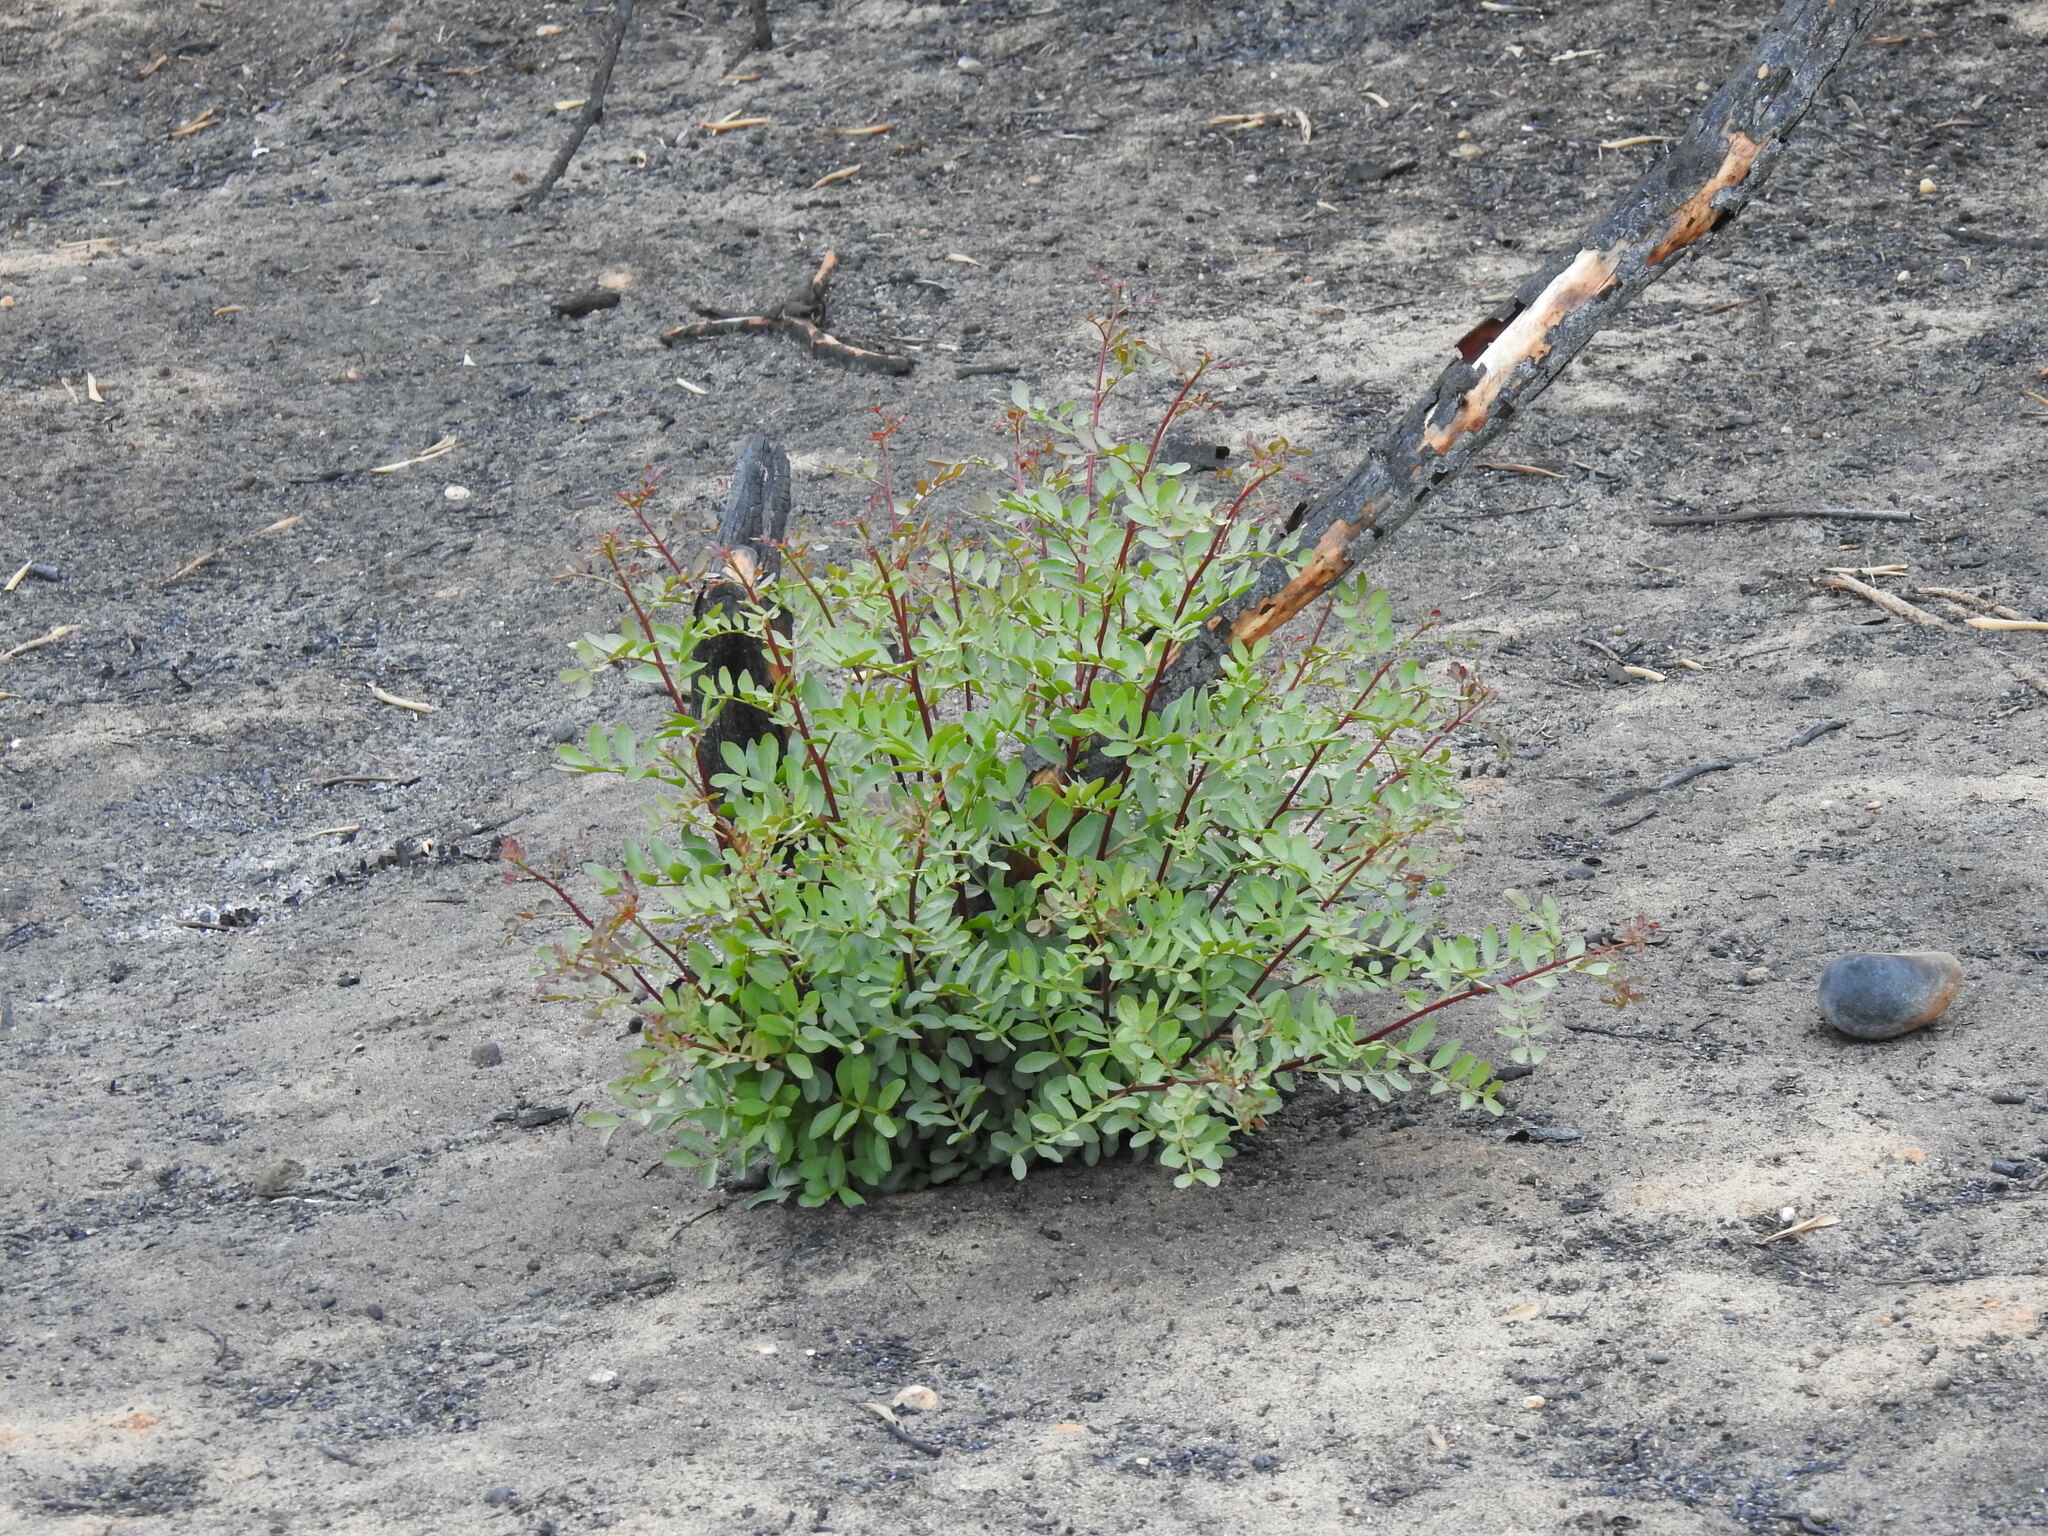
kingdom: Plantae
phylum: Tracheophyta
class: Magnoliopsida
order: Sapindales
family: Anacardiaceae
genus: Pistacia
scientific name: Pistacia lentiscus
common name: Lentisk
